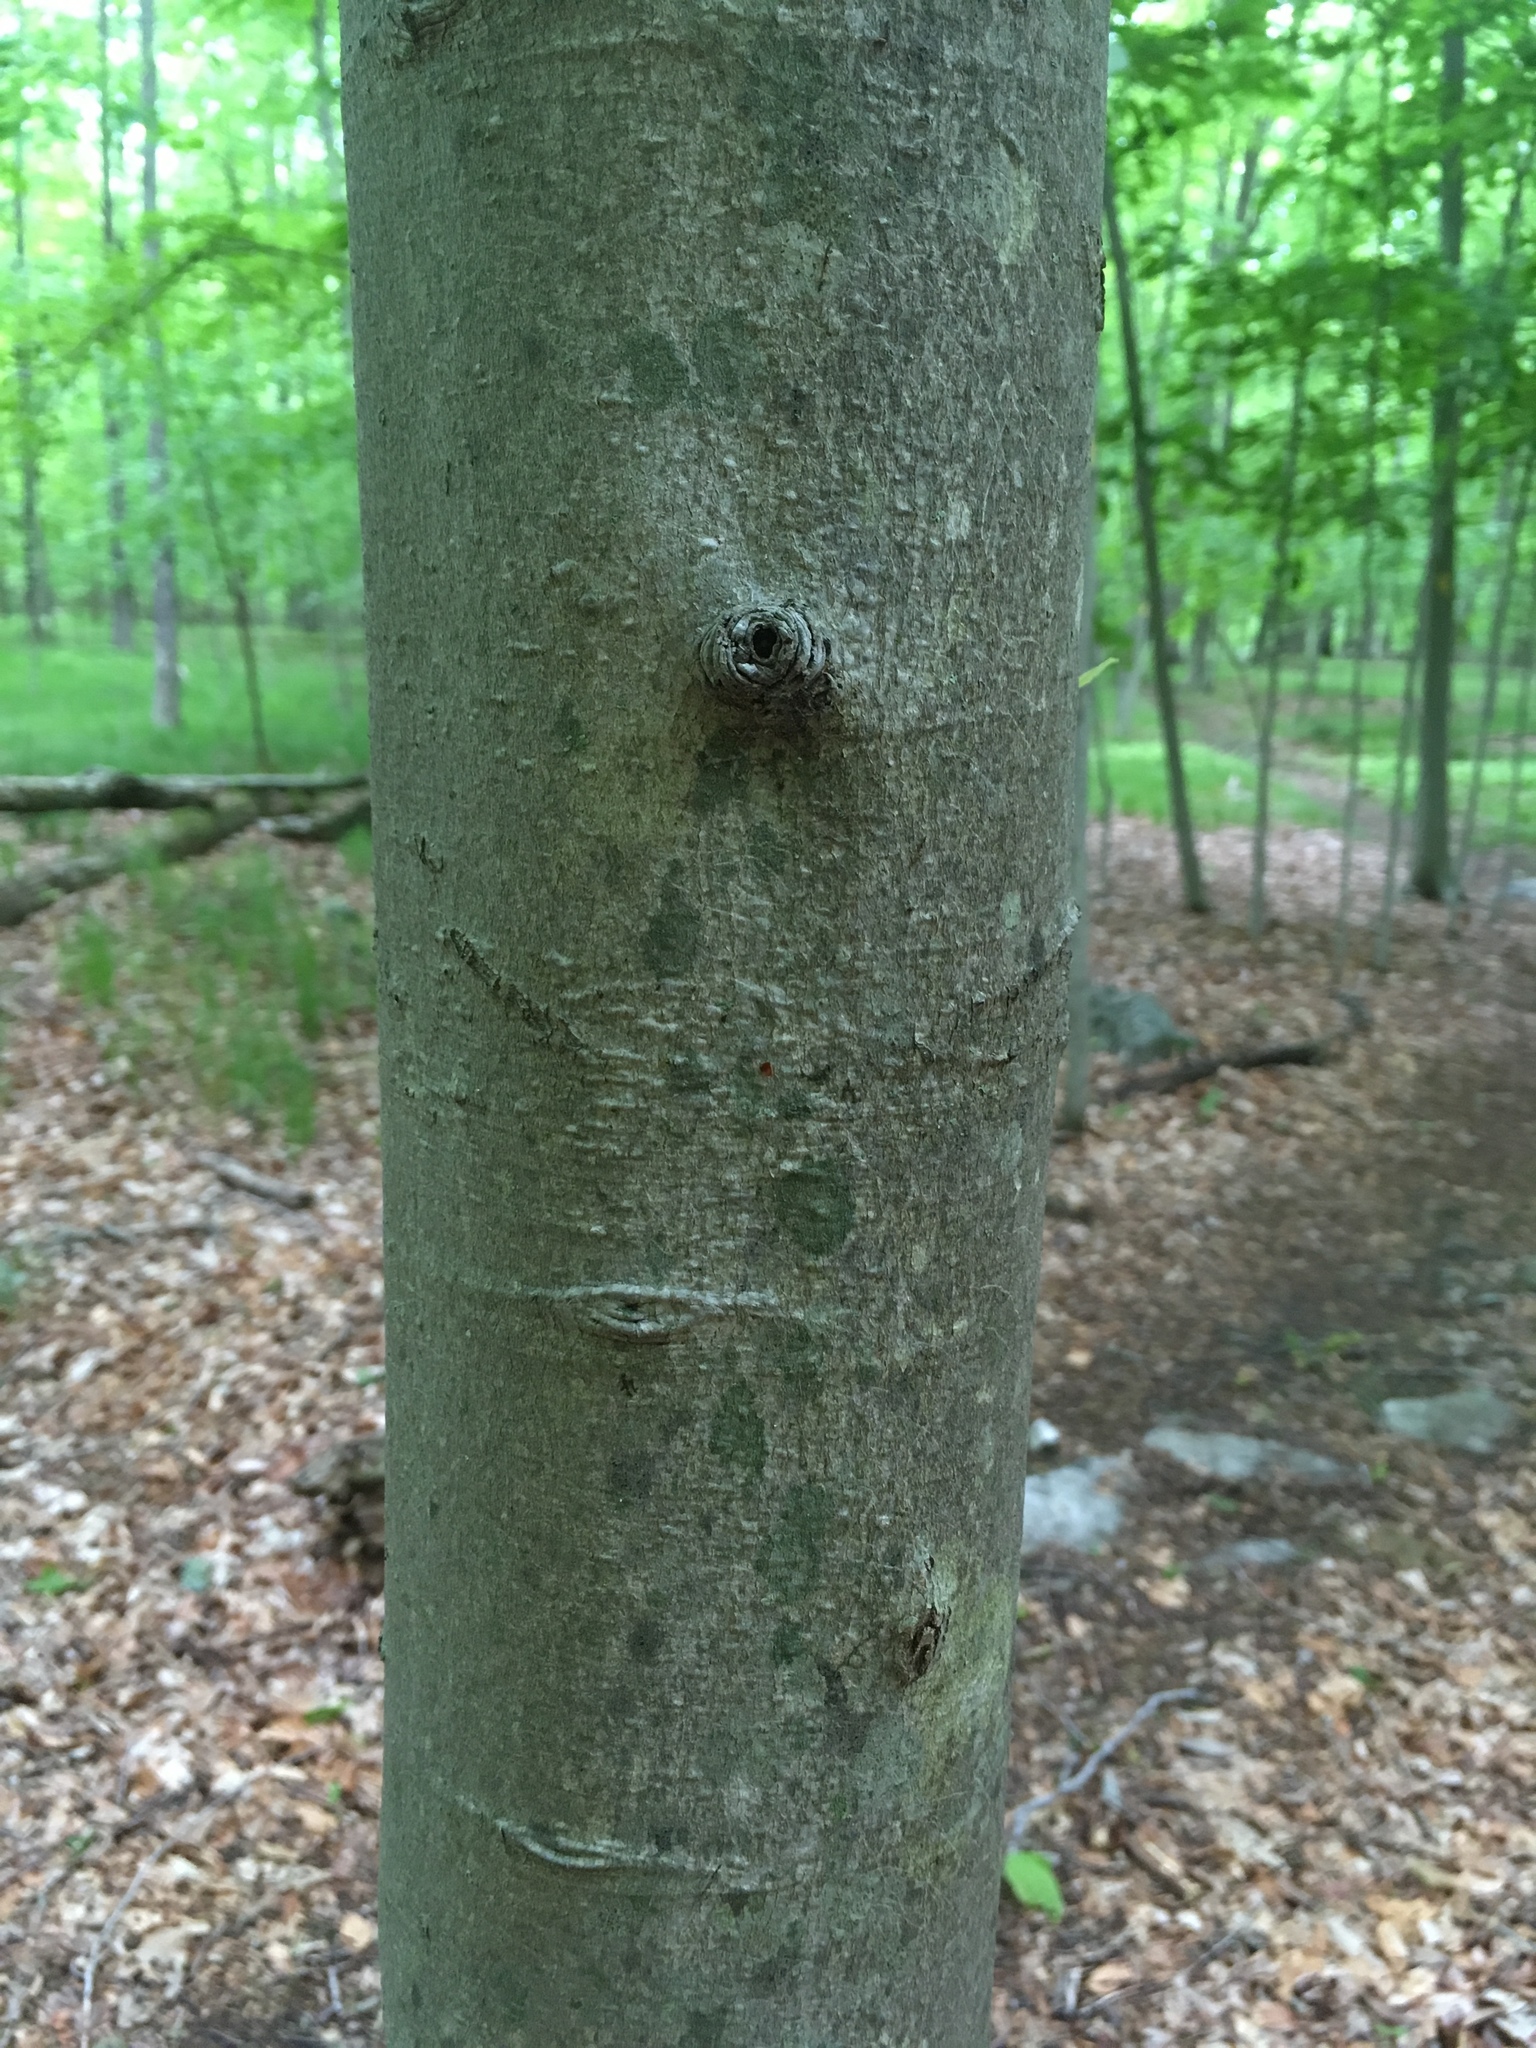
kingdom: Plantae
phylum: Tracheophyta
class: Magnoliopsida
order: Fagales
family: Fagaceae
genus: Fagus
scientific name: Fagus grandifolia
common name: American beech
